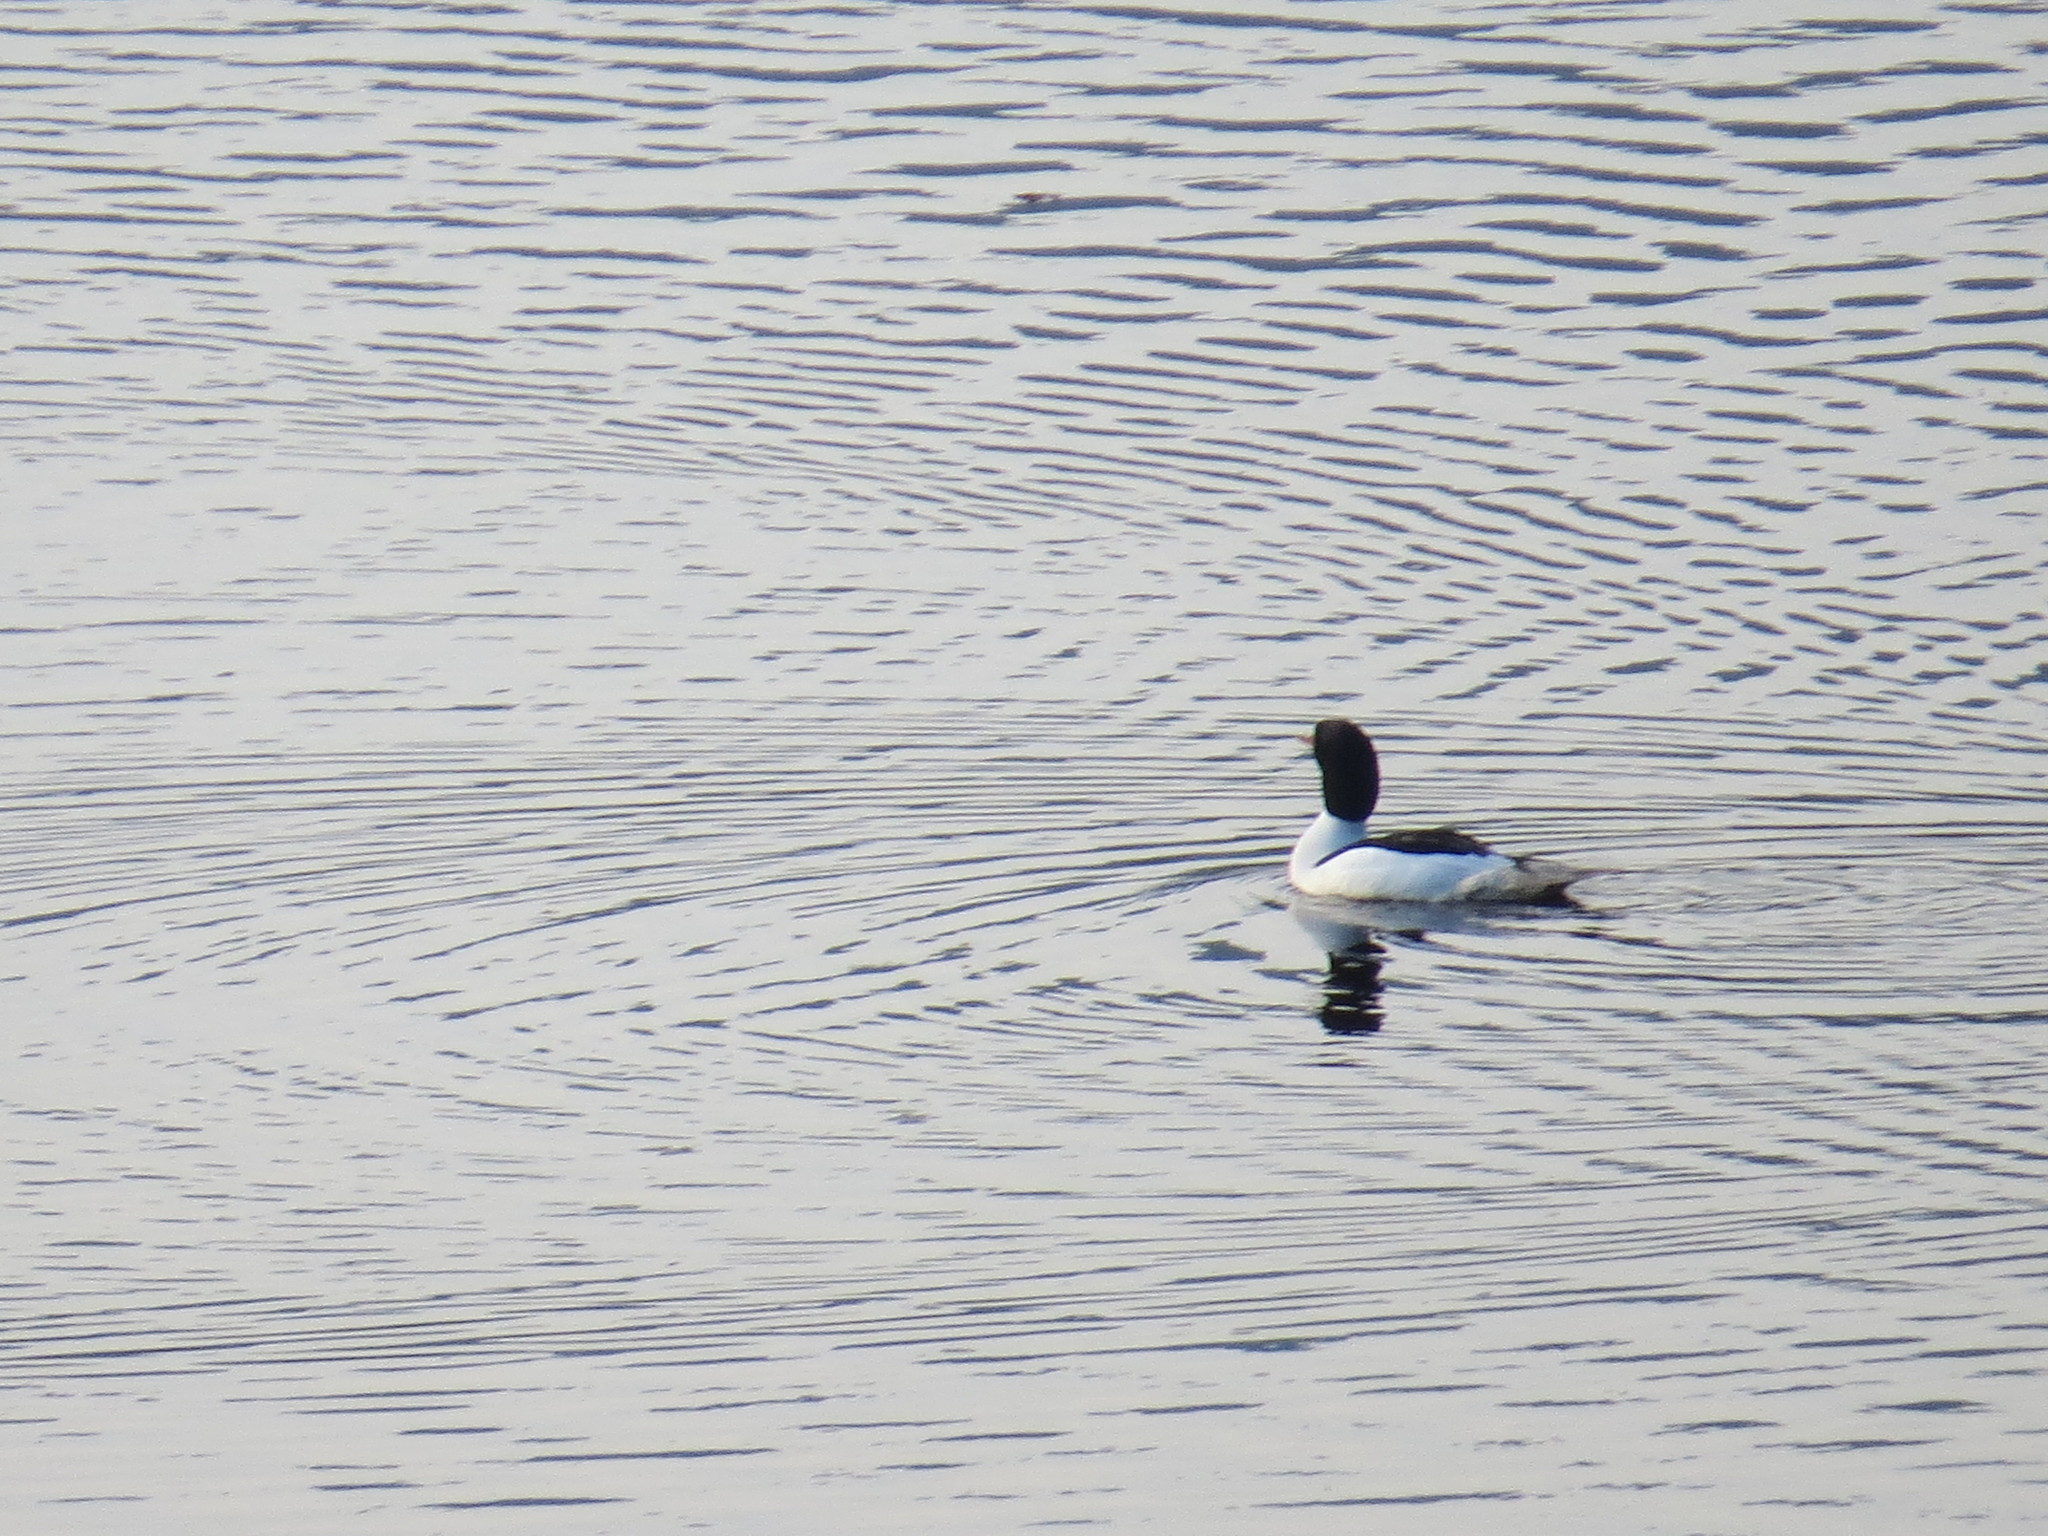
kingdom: Animalia
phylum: Chordata
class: Aves
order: Anseriformes
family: Anatidae
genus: Mergus
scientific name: Mergus merganser
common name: Common merganser
